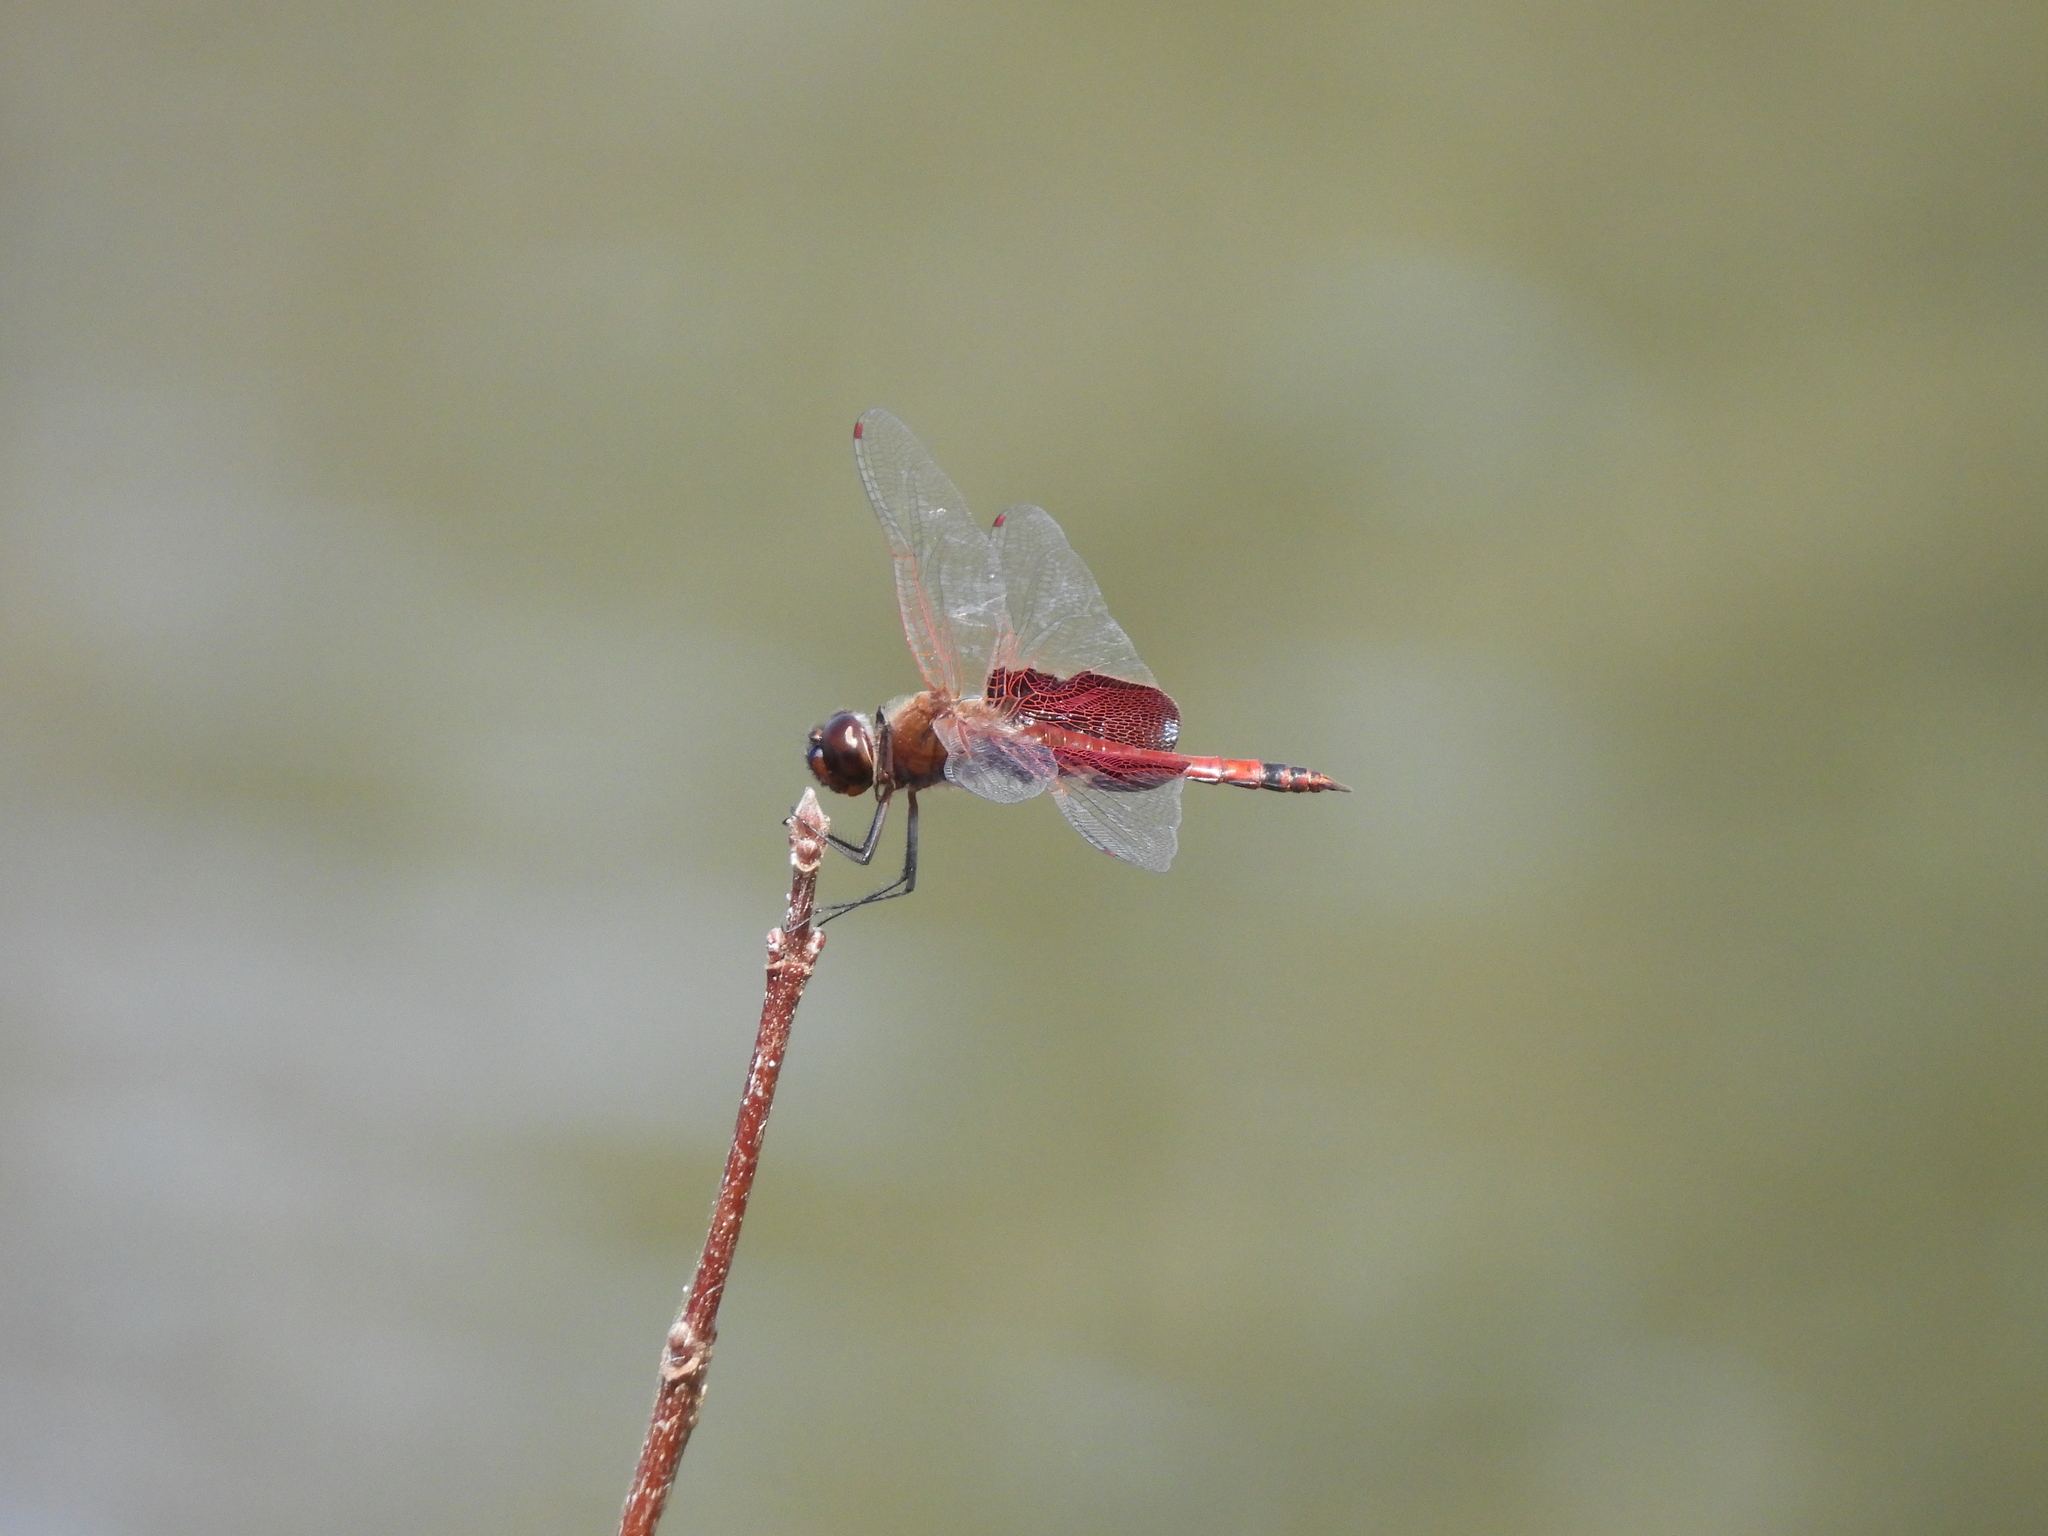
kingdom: Animalia
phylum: Arthropoda
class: Insecta
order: Odonata
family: Libellulidae
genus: Tramea
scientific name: Tramea carolina
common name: Carolina saddlebags
